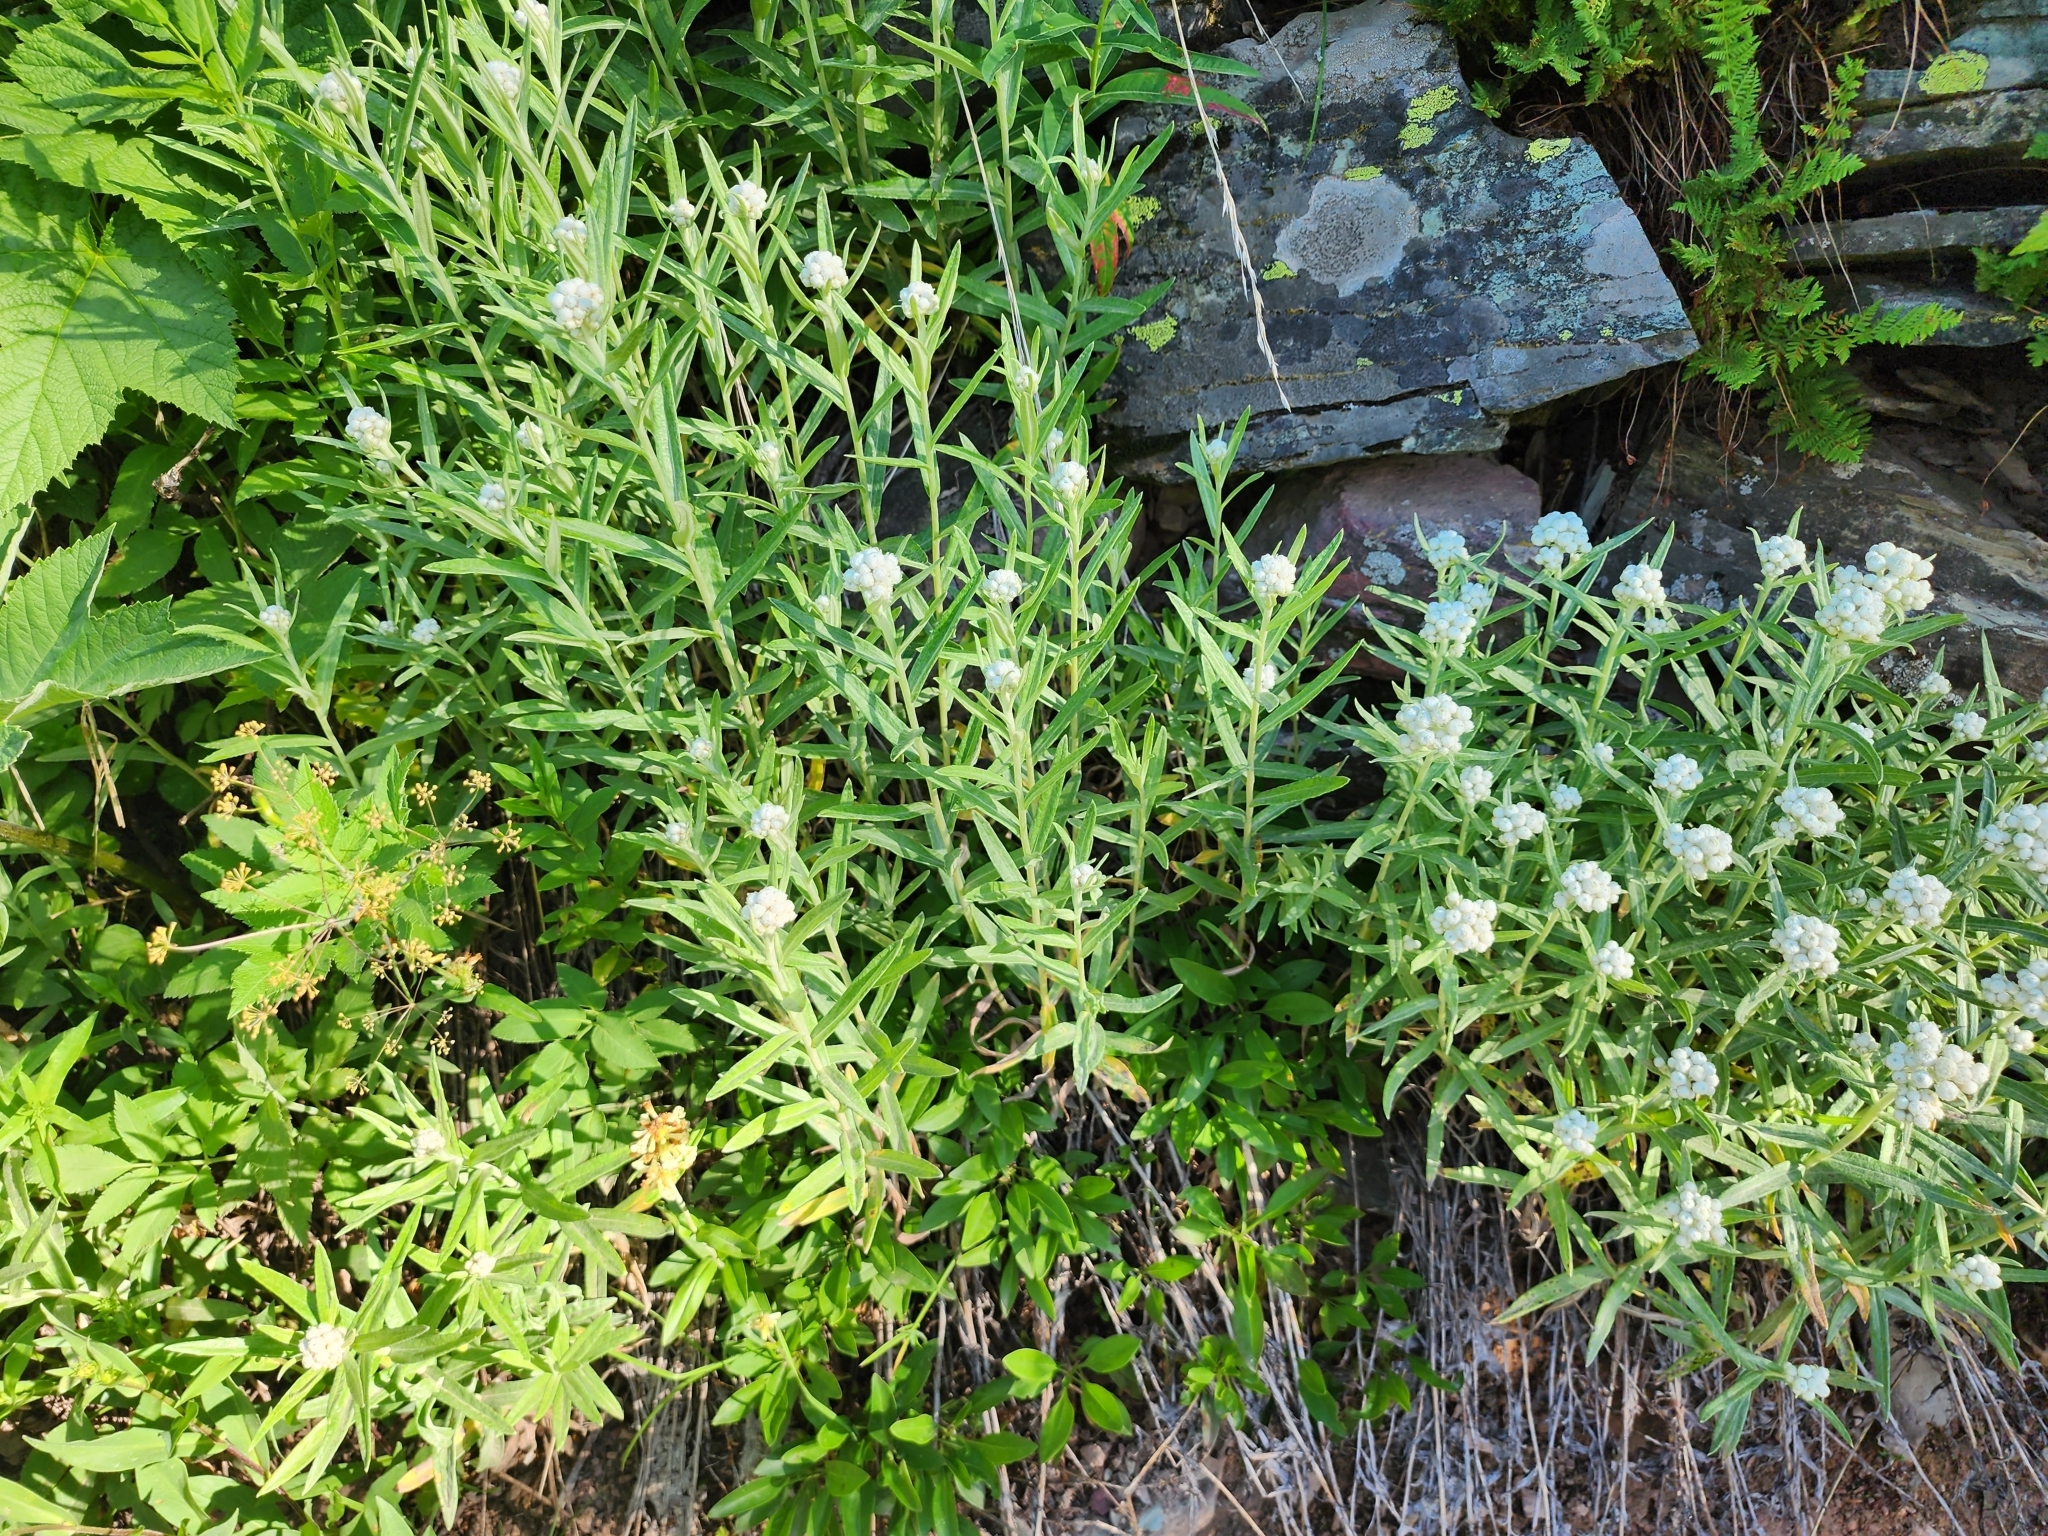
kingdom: Plantae
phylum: Tracheophyta
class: Magnoliopsida
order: Asterales
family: Asteraceae
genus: Anaphalis
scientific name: Anaphalis margaritacea
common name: Pearly everlasting
